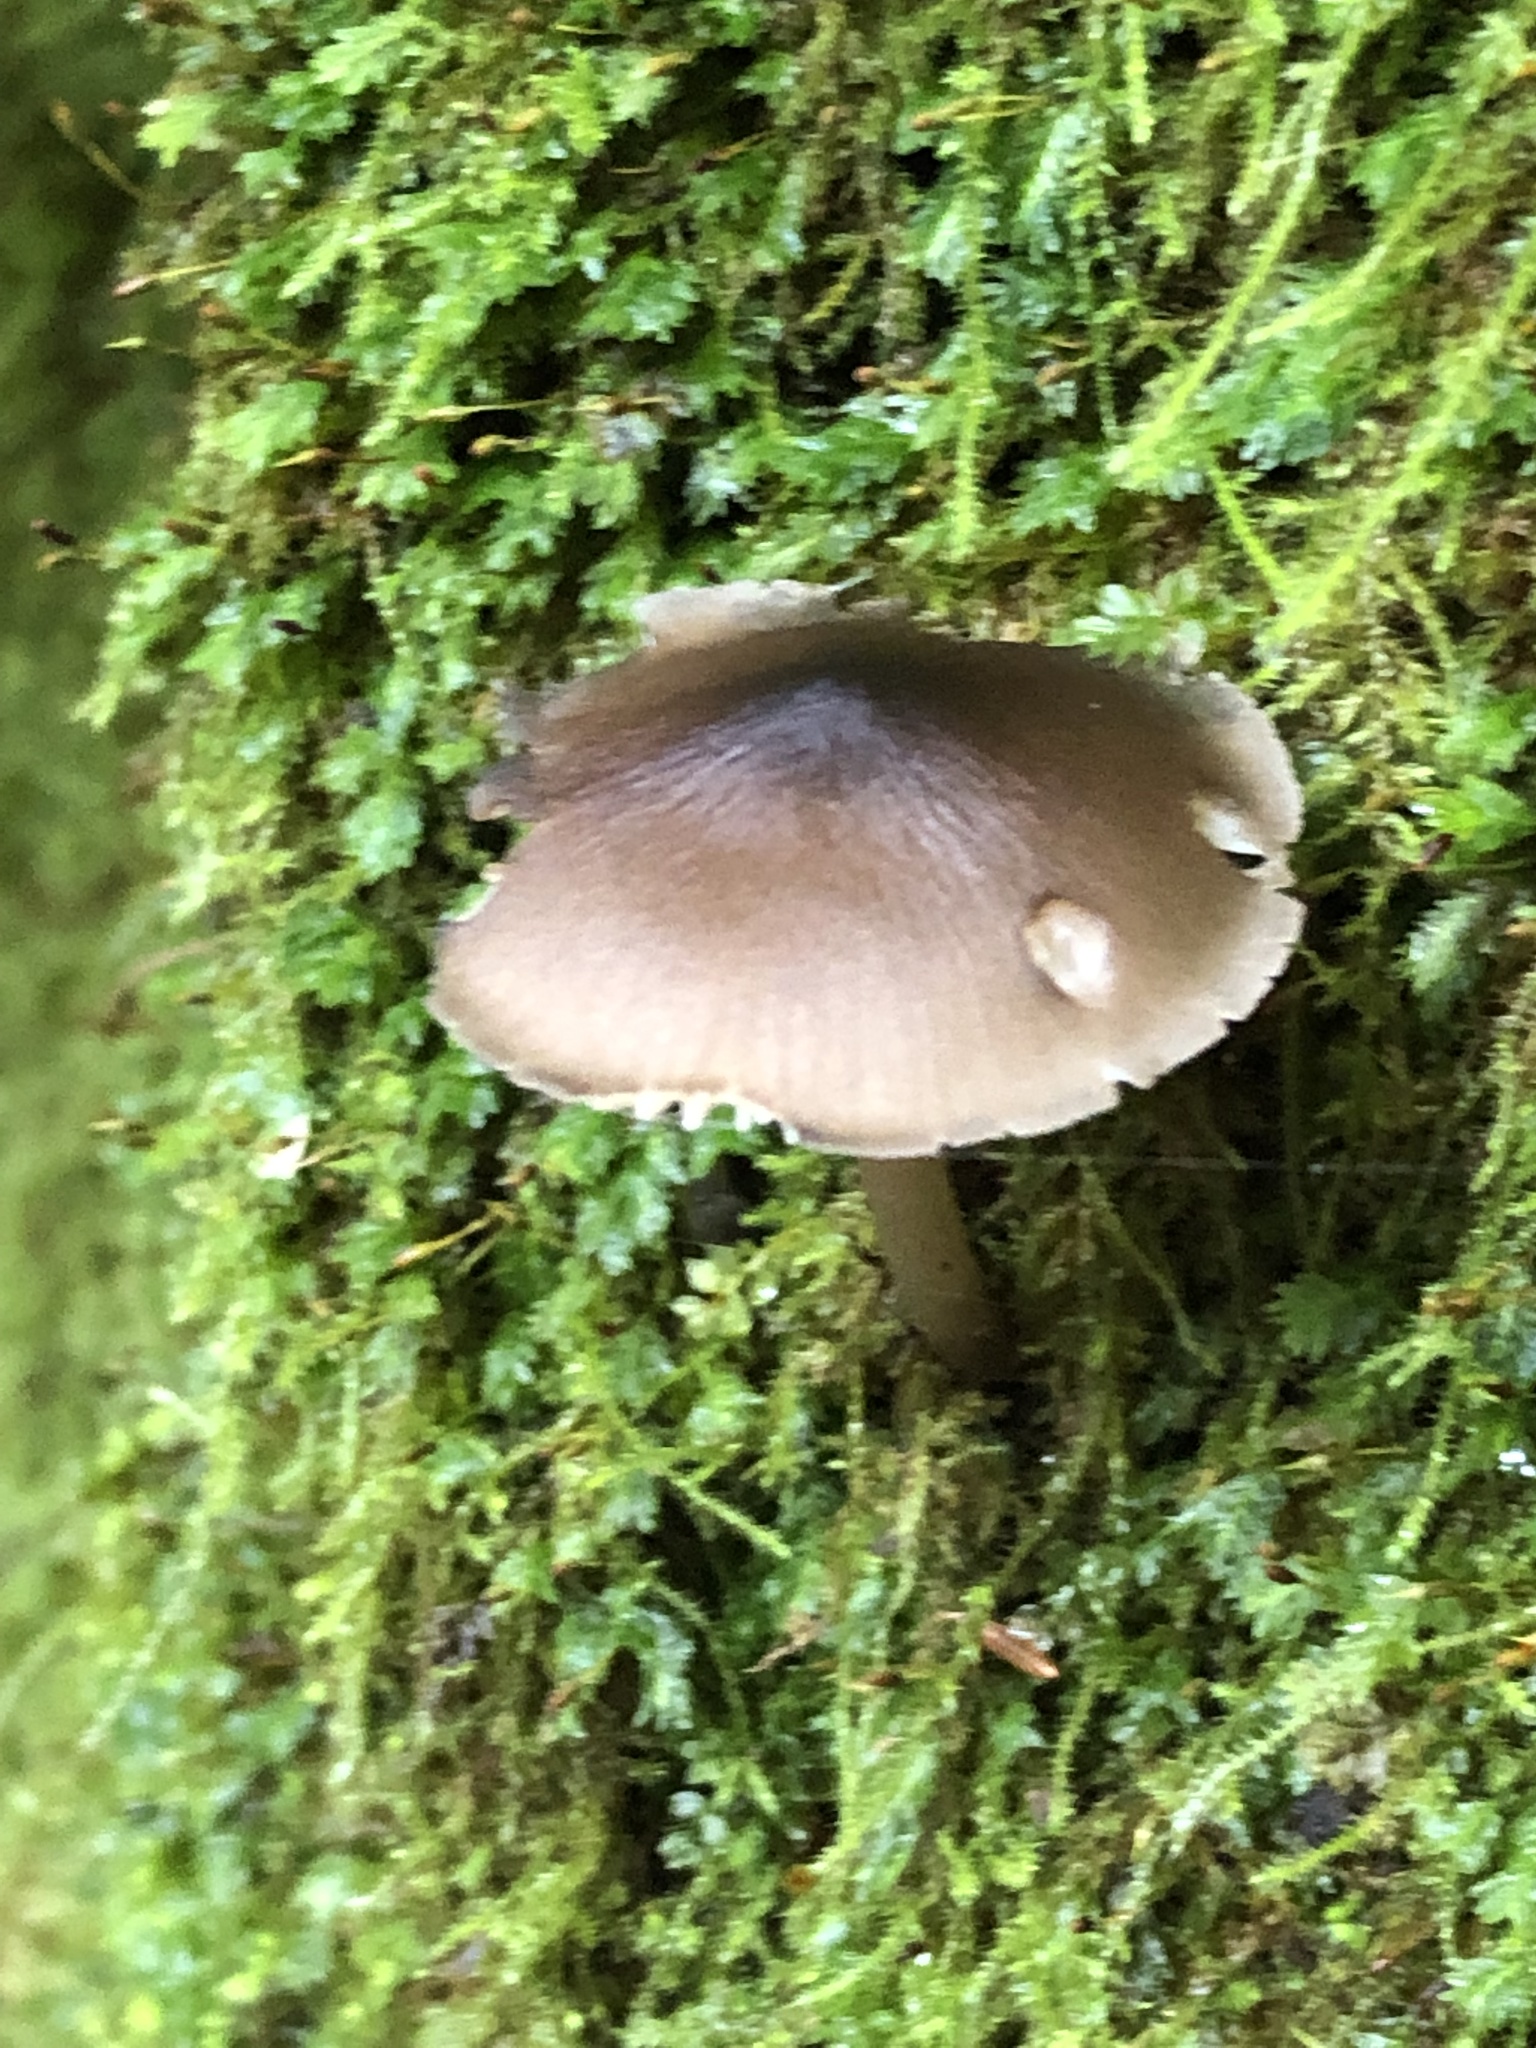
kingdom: Fungi
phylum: Basidiomycota
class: Agaricomycetes
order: Agaricales
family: Mycenaceae
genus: Mycena
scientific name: Mycena leptocephala
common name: Nitrous bonnet
